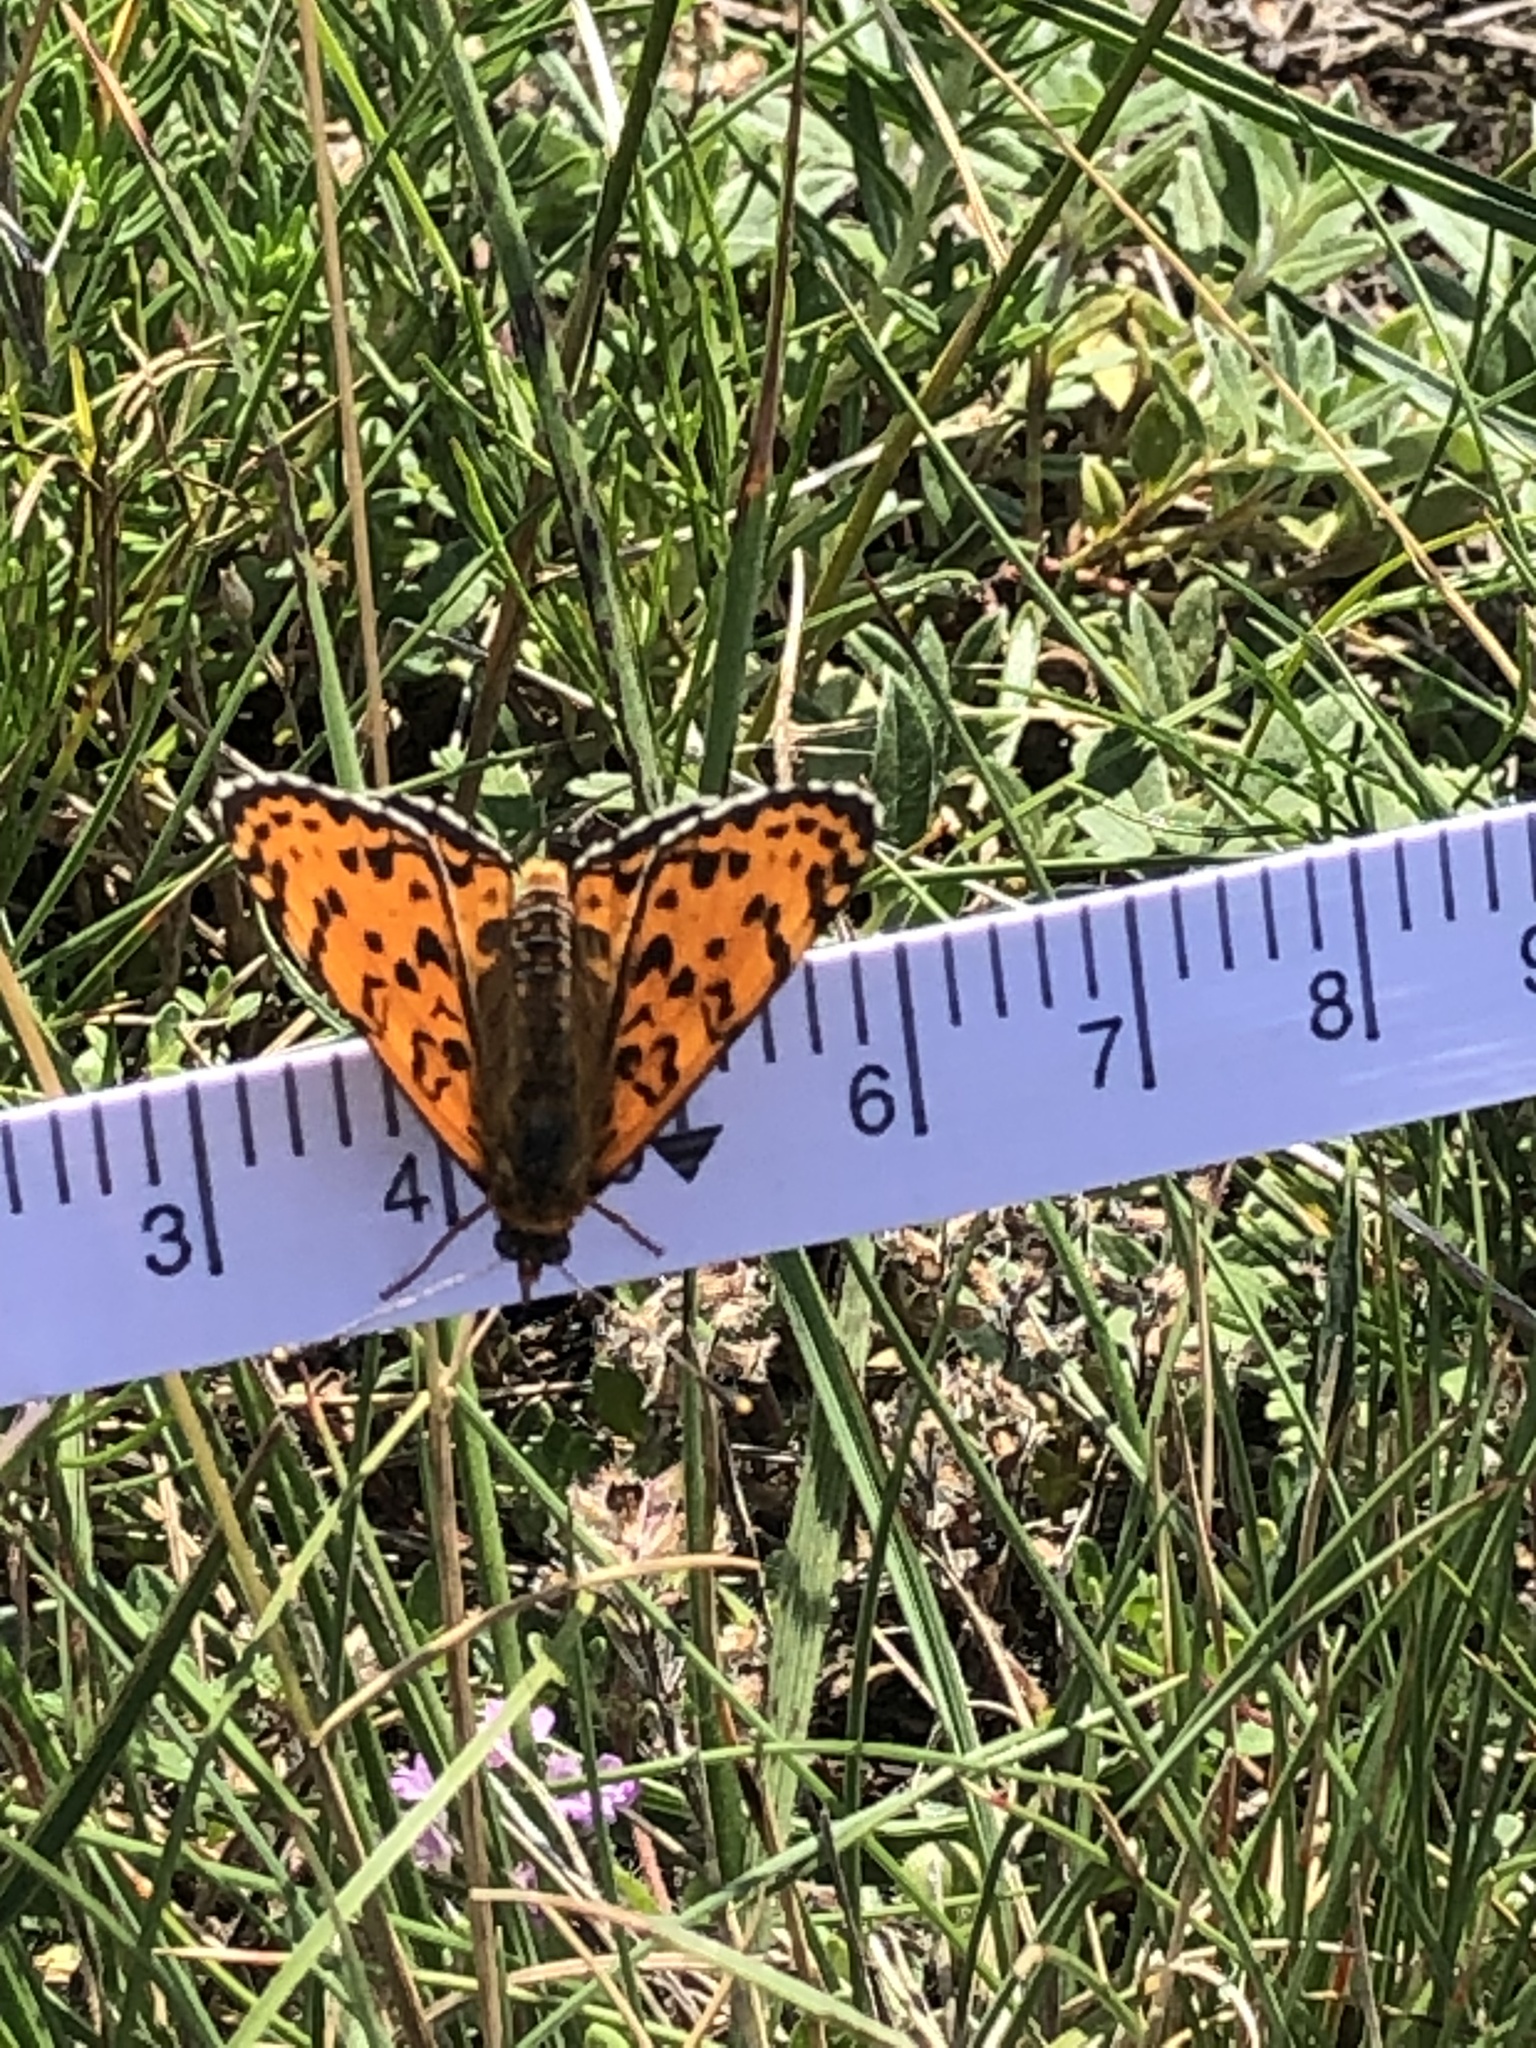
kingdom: Animalia
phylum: Arthropoda
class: Insecta
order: Lepidoptera
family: Nymphalidae
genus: Melitaea
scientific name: Melitaea didyma
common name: Spotted fritillary
